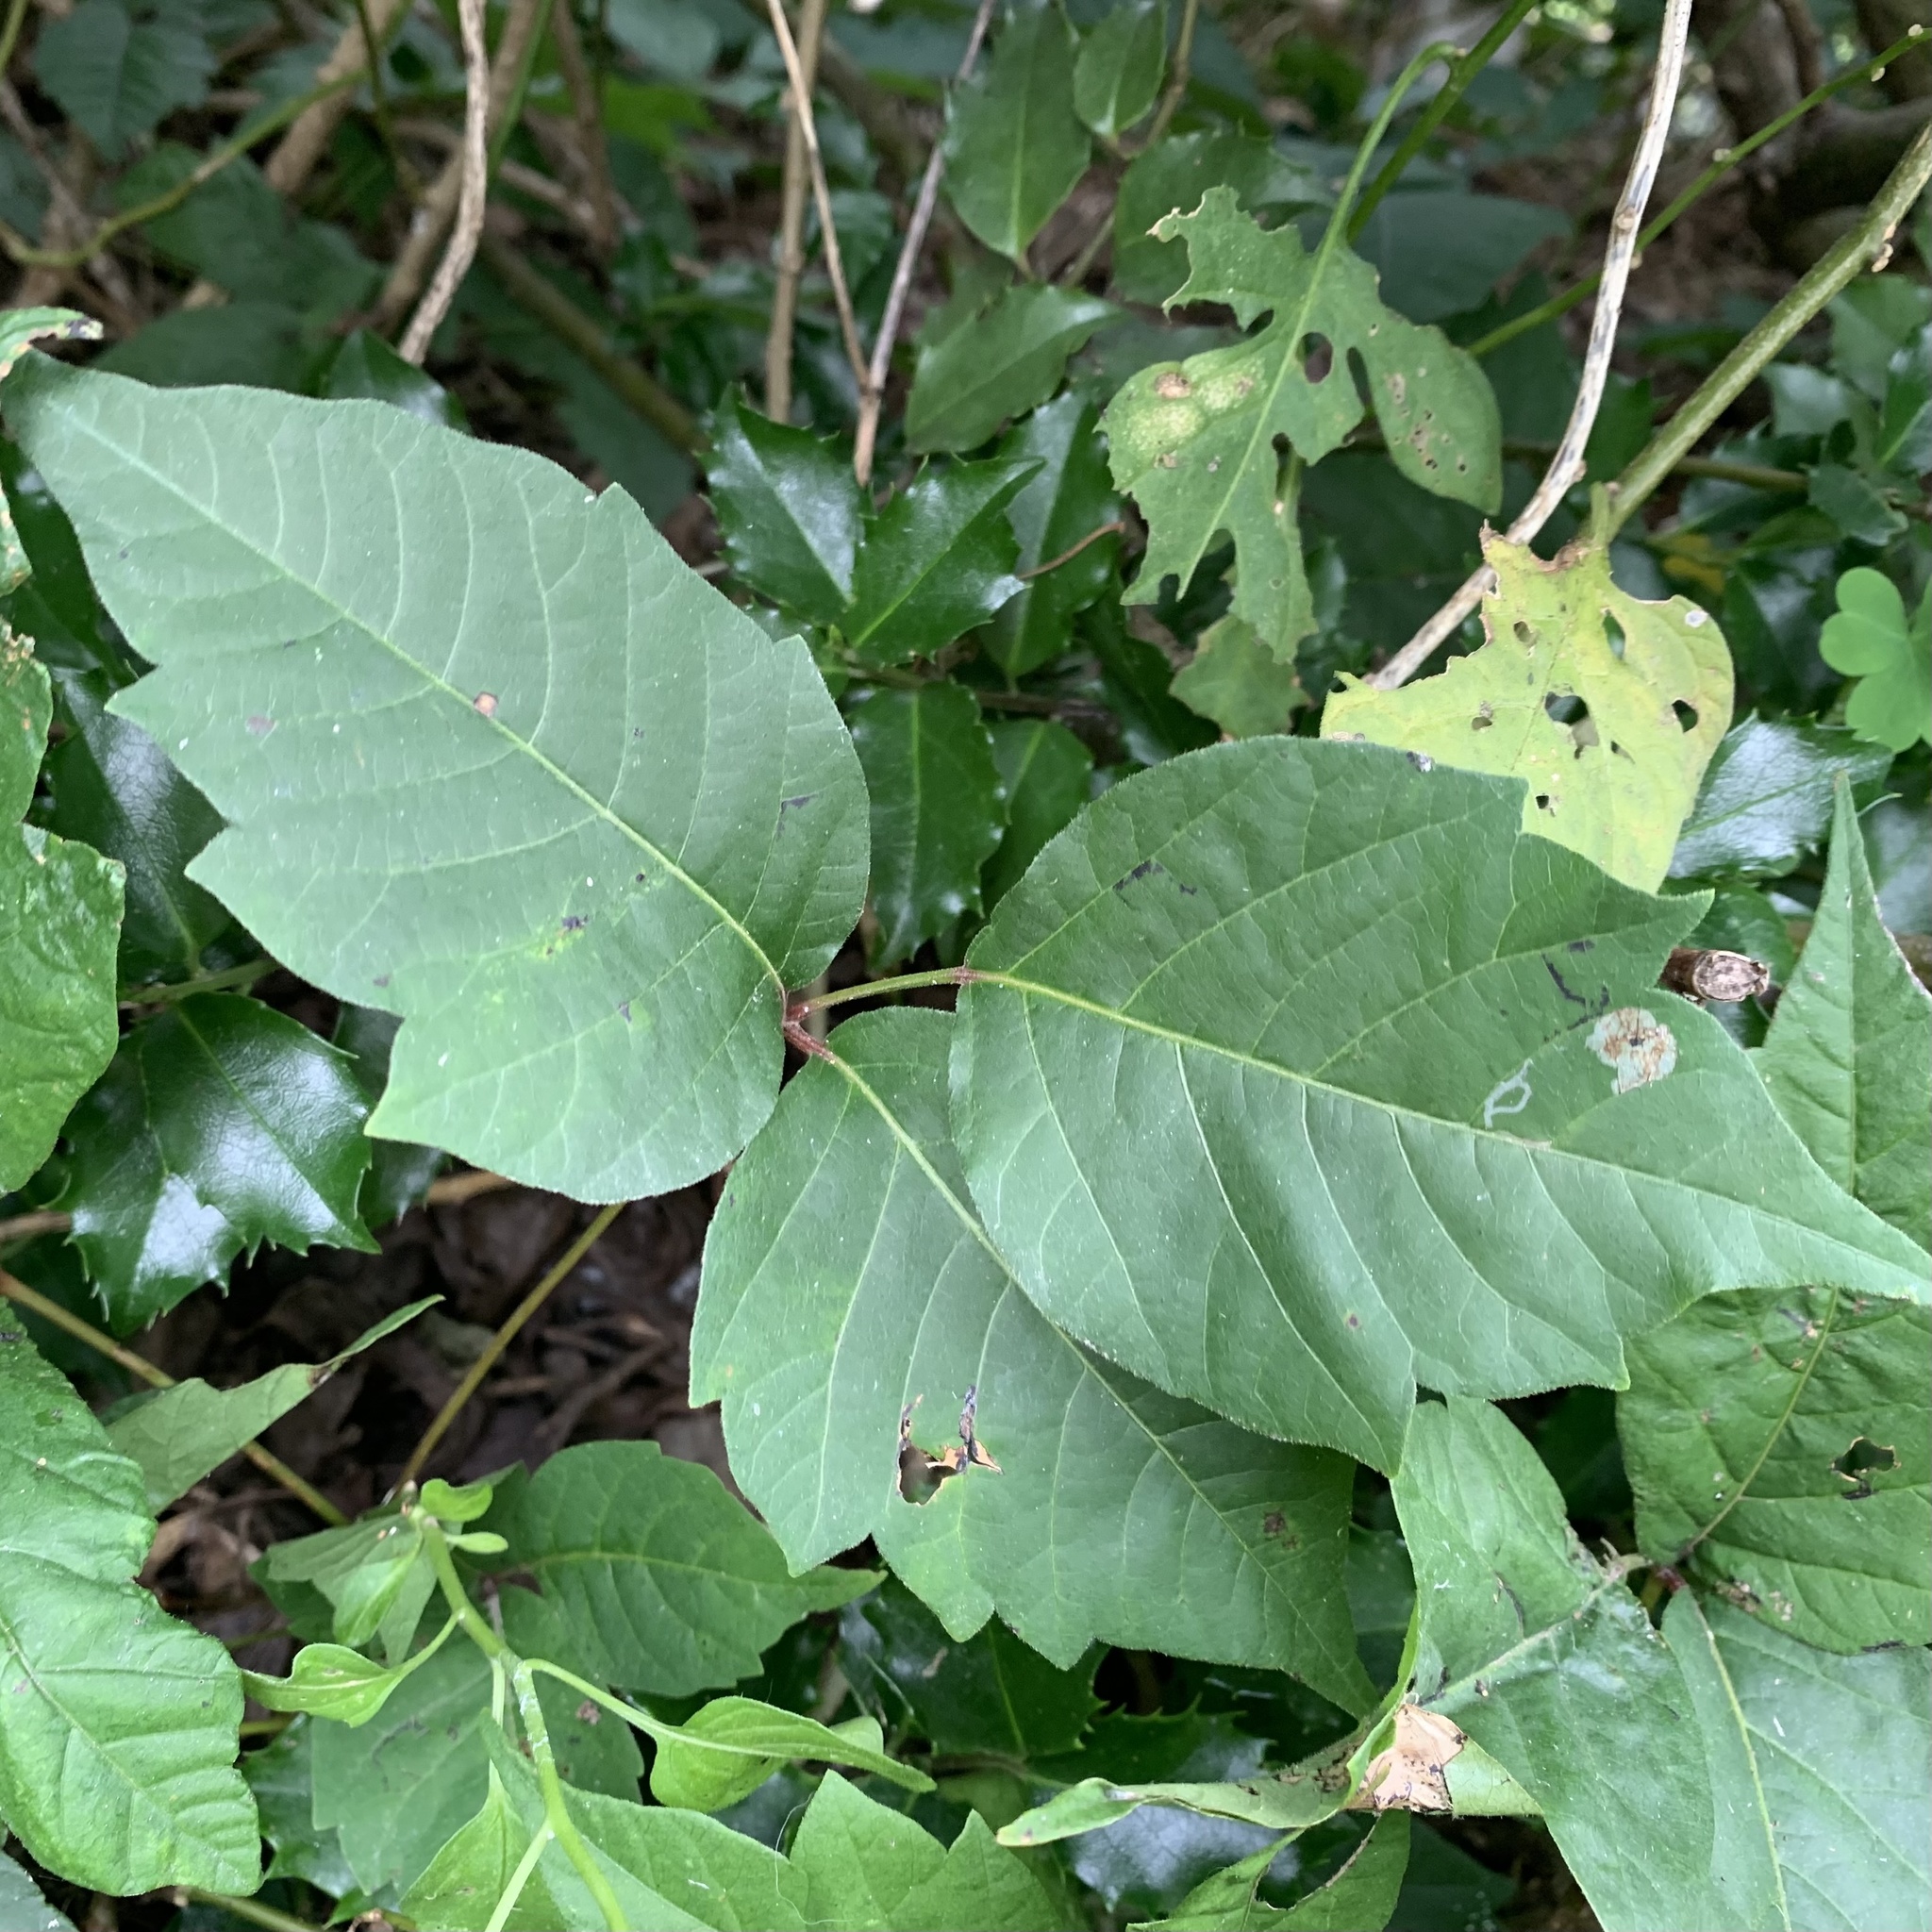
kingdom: Plantae
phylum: Tracheophyta
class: Magnoliopsida
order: Sapindales
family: Anacardiaceae
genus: Toxicodendron
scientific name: Toxicodendron radicans
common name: Poison ivy
